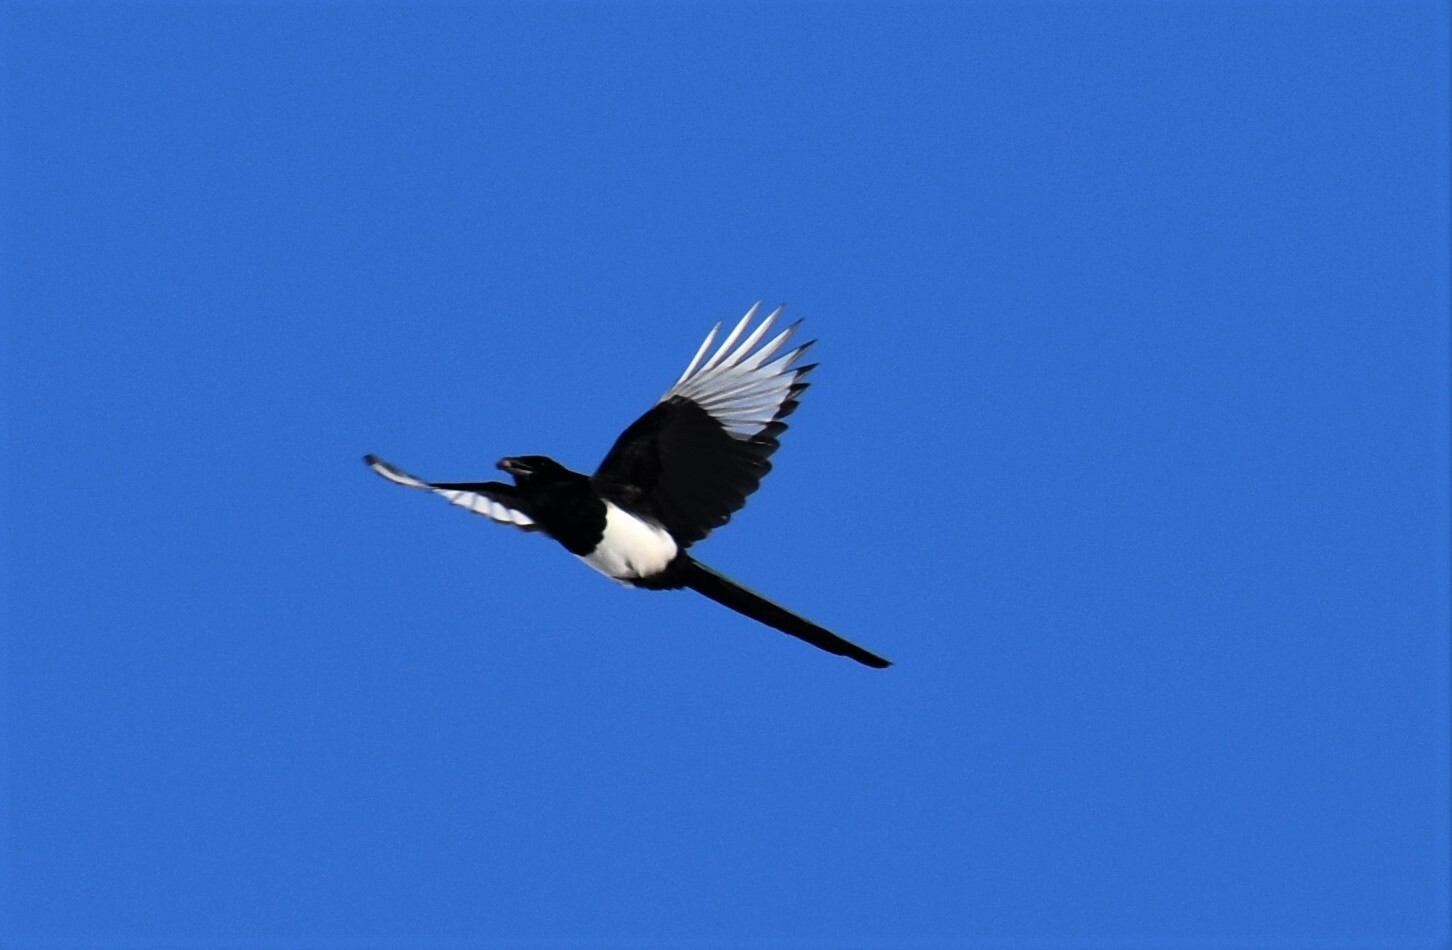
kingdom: Animalia
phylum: Chordata
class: Aves
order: Passeriformes
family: Corvidae
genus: Pica
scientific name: Pica hudsonia
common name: Black-billed magpie
